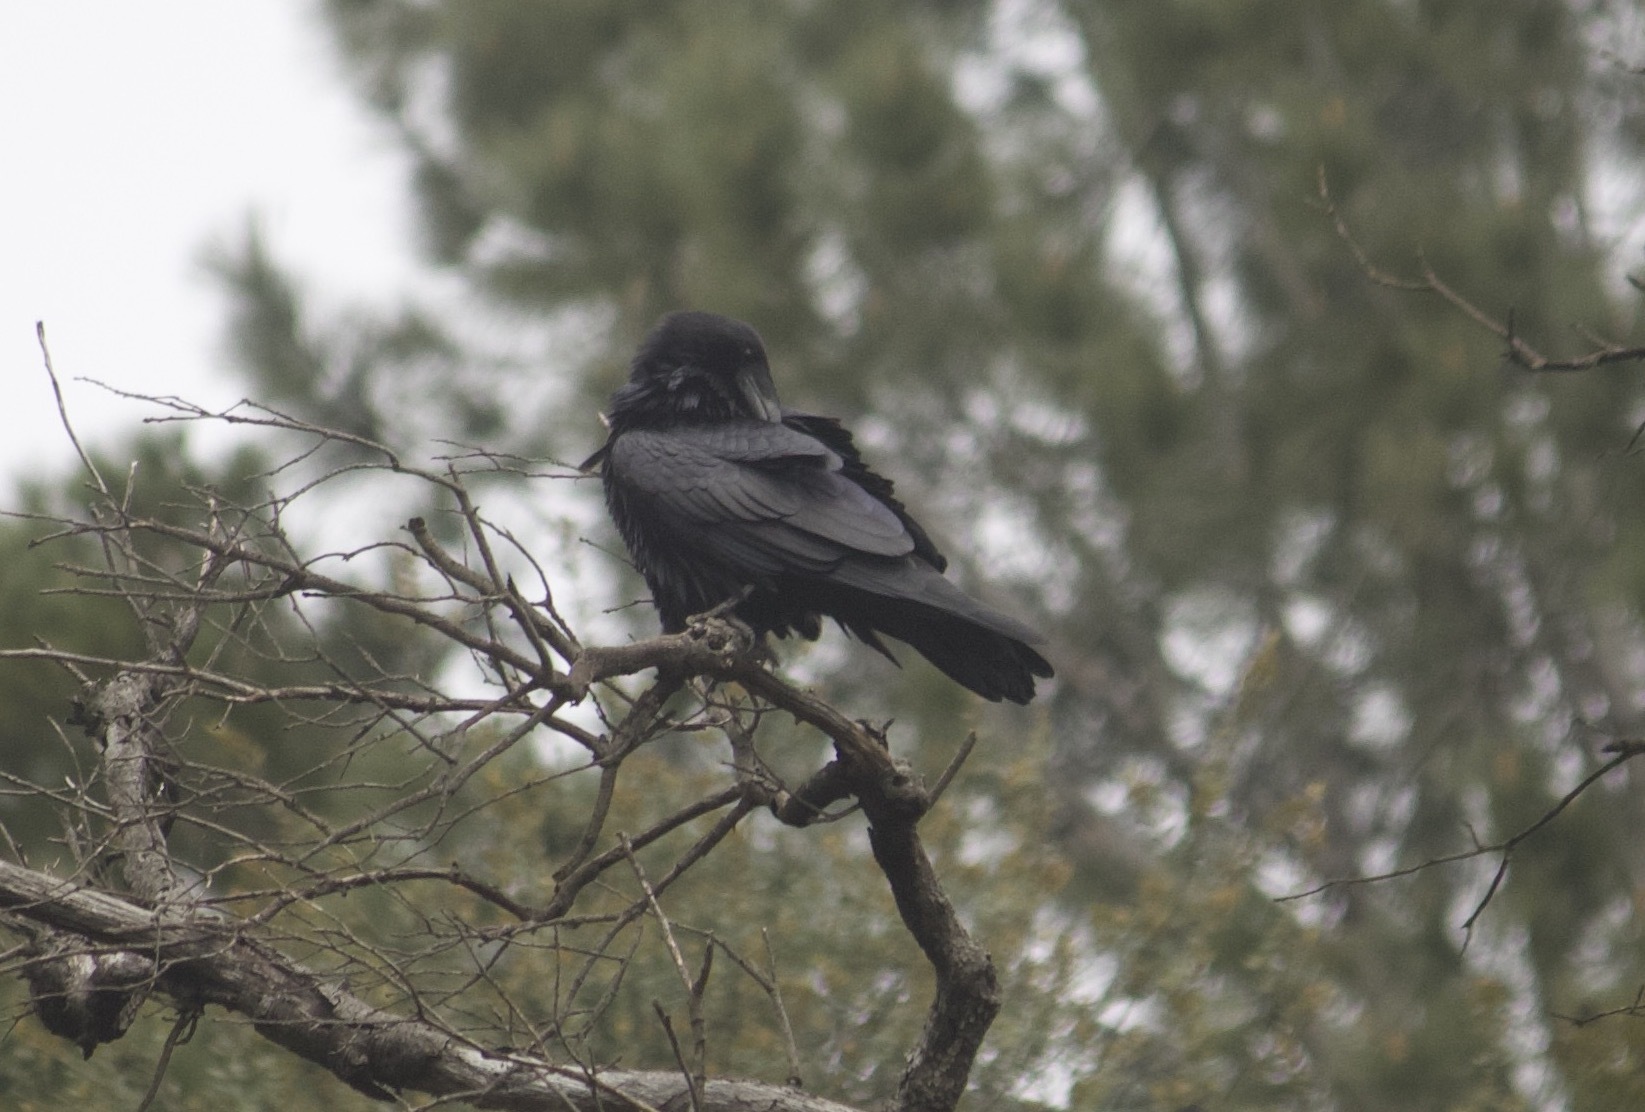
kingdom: Animalia
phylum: Chordata
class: Aves
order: Passeriformes
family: Corvidae
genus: Corvus
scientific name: Corvus corax
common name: Common raven
